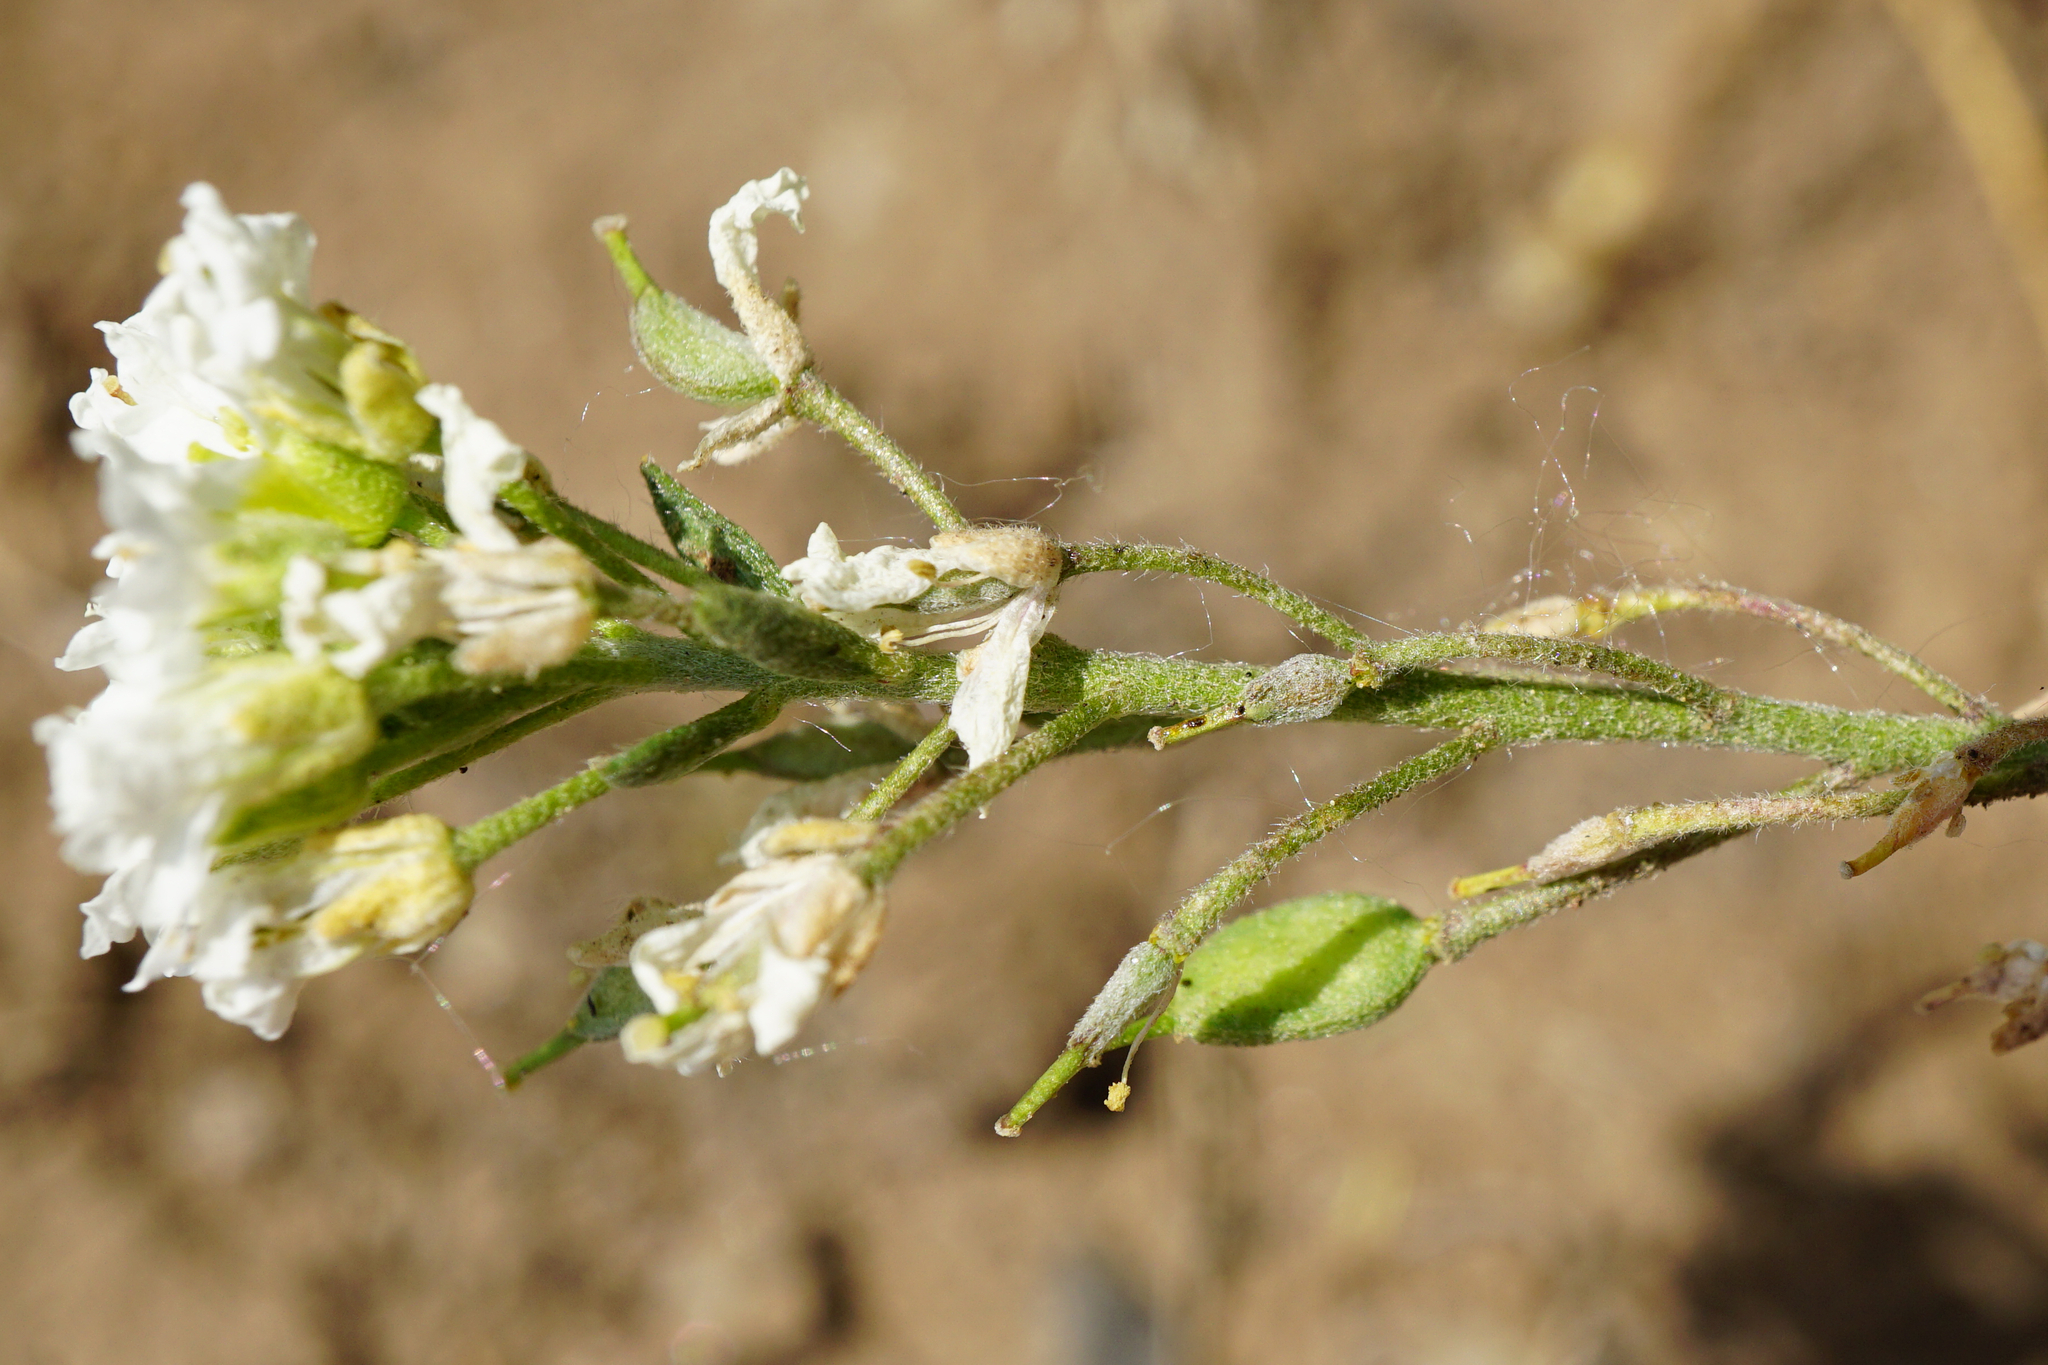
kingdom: Plantae
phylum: Tracheophyta
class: Magnoliopsida
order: Brassicales
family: Brassicaceae
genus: Berteroa
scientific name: Berteroa incana
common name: Hoary alison
